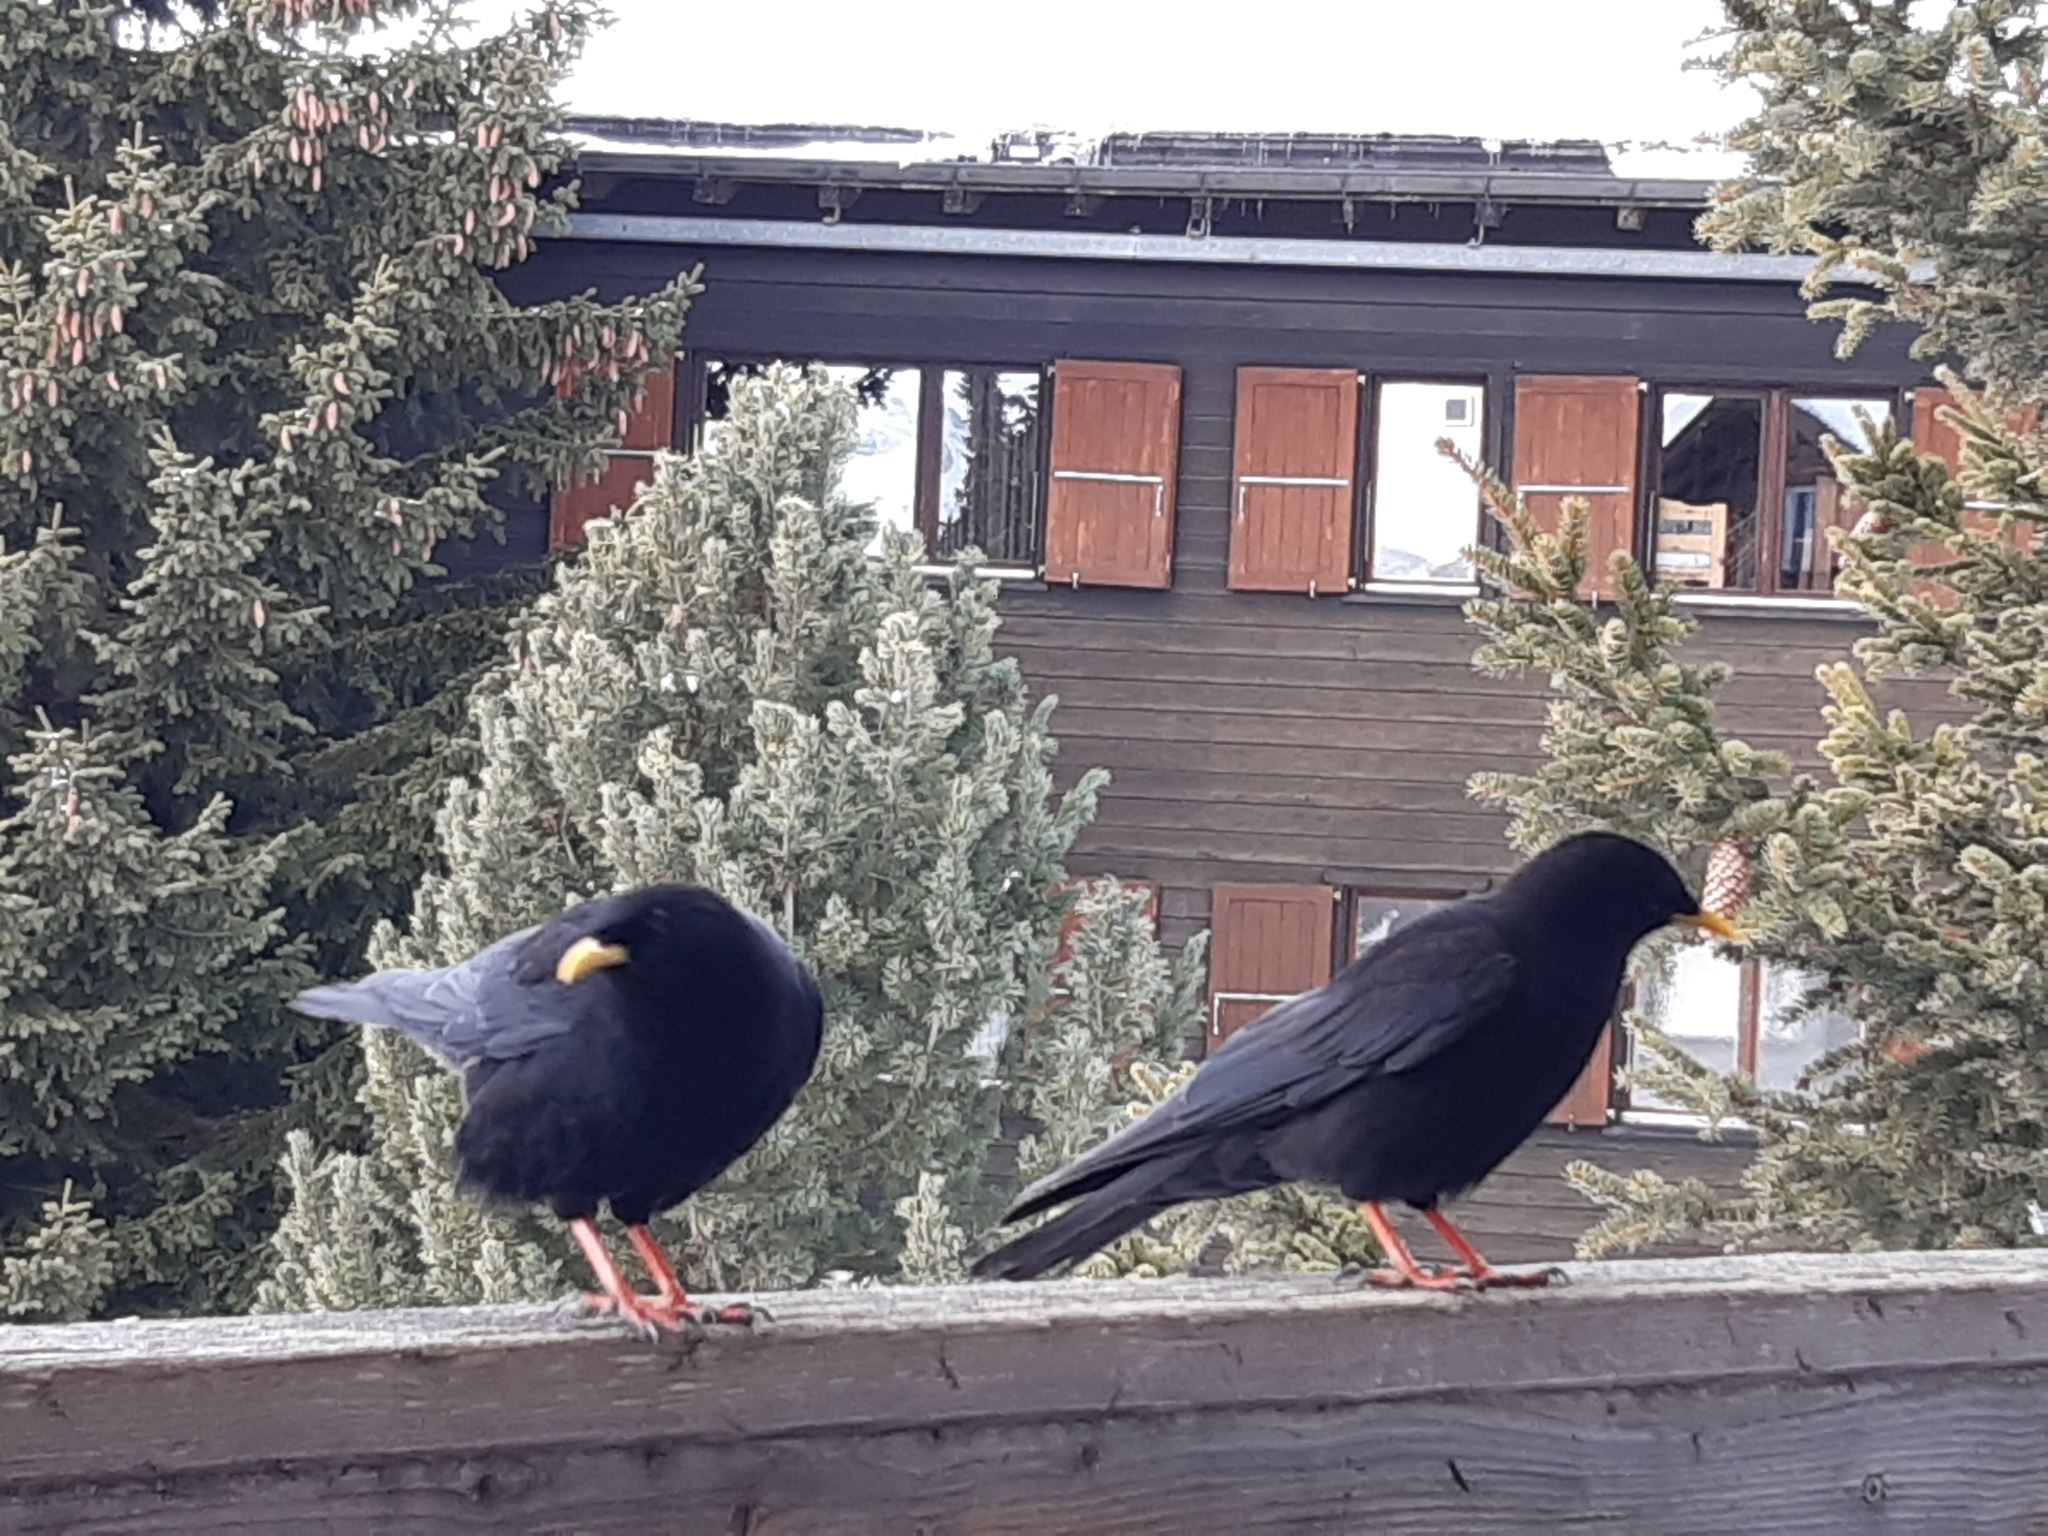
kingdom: Animalia
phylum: Chordata
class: Aves
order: Passeriformes
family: Corvidae
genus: Pyrrhocorax
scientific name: Pyrrhocorax graculus
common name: Alpine chough
